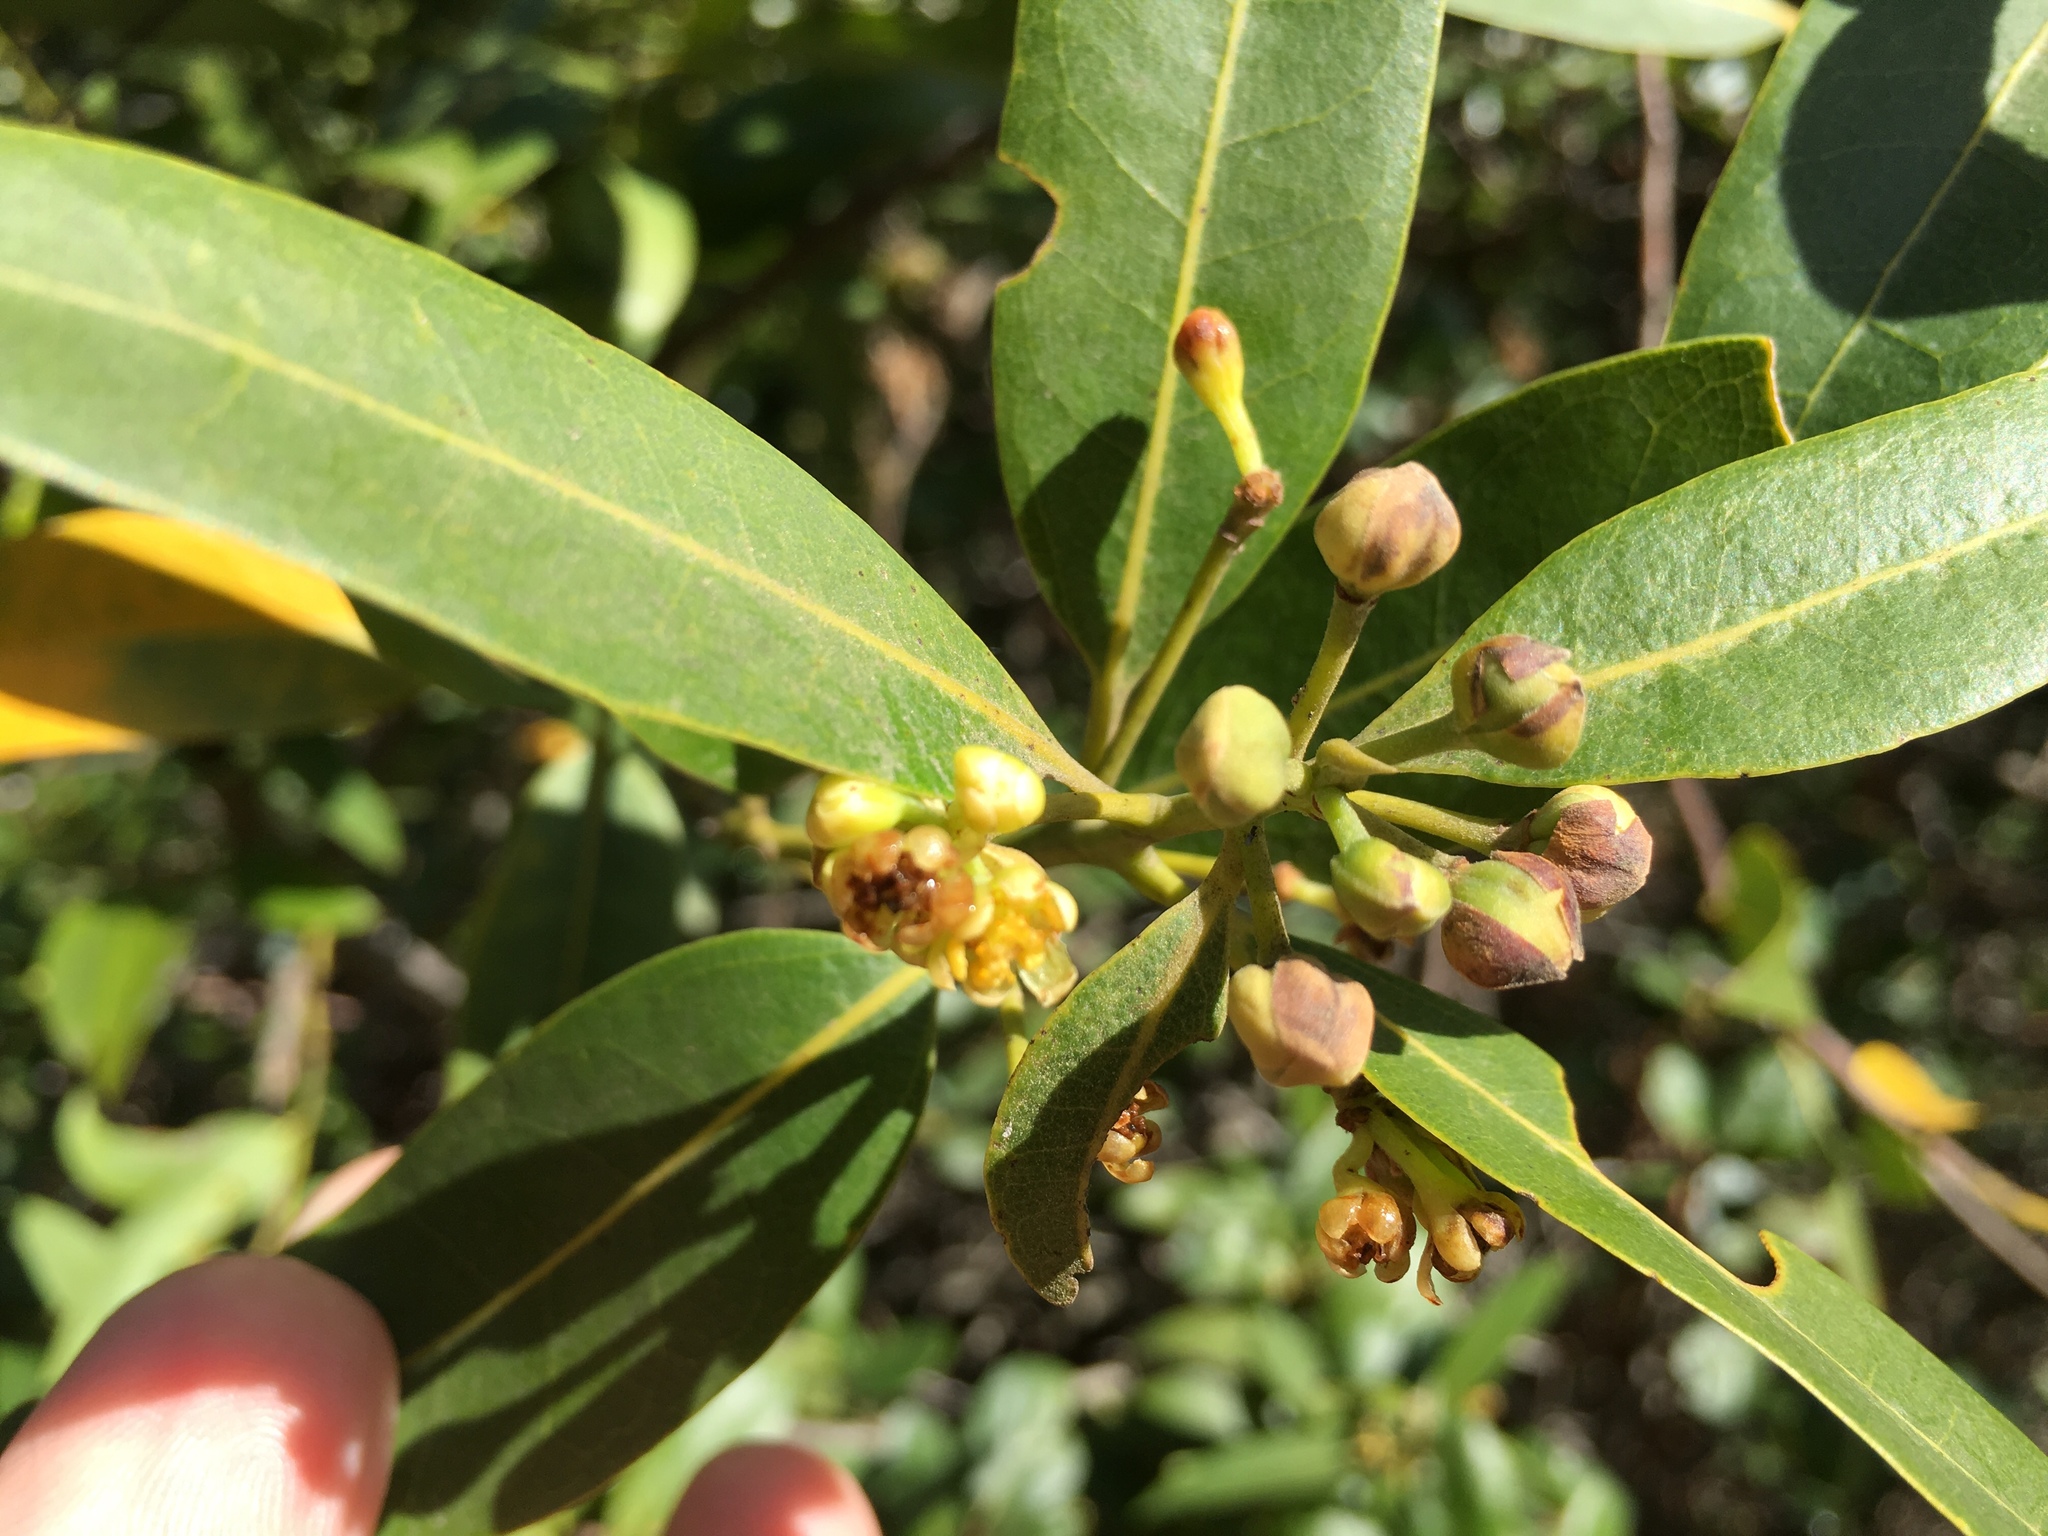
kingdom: Plantae
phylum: Tracheophyta
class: Magnoliopsida
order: Laurales
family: Lauraceae
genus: Umbellularia
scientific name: Umbellularia californica
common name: California bay
